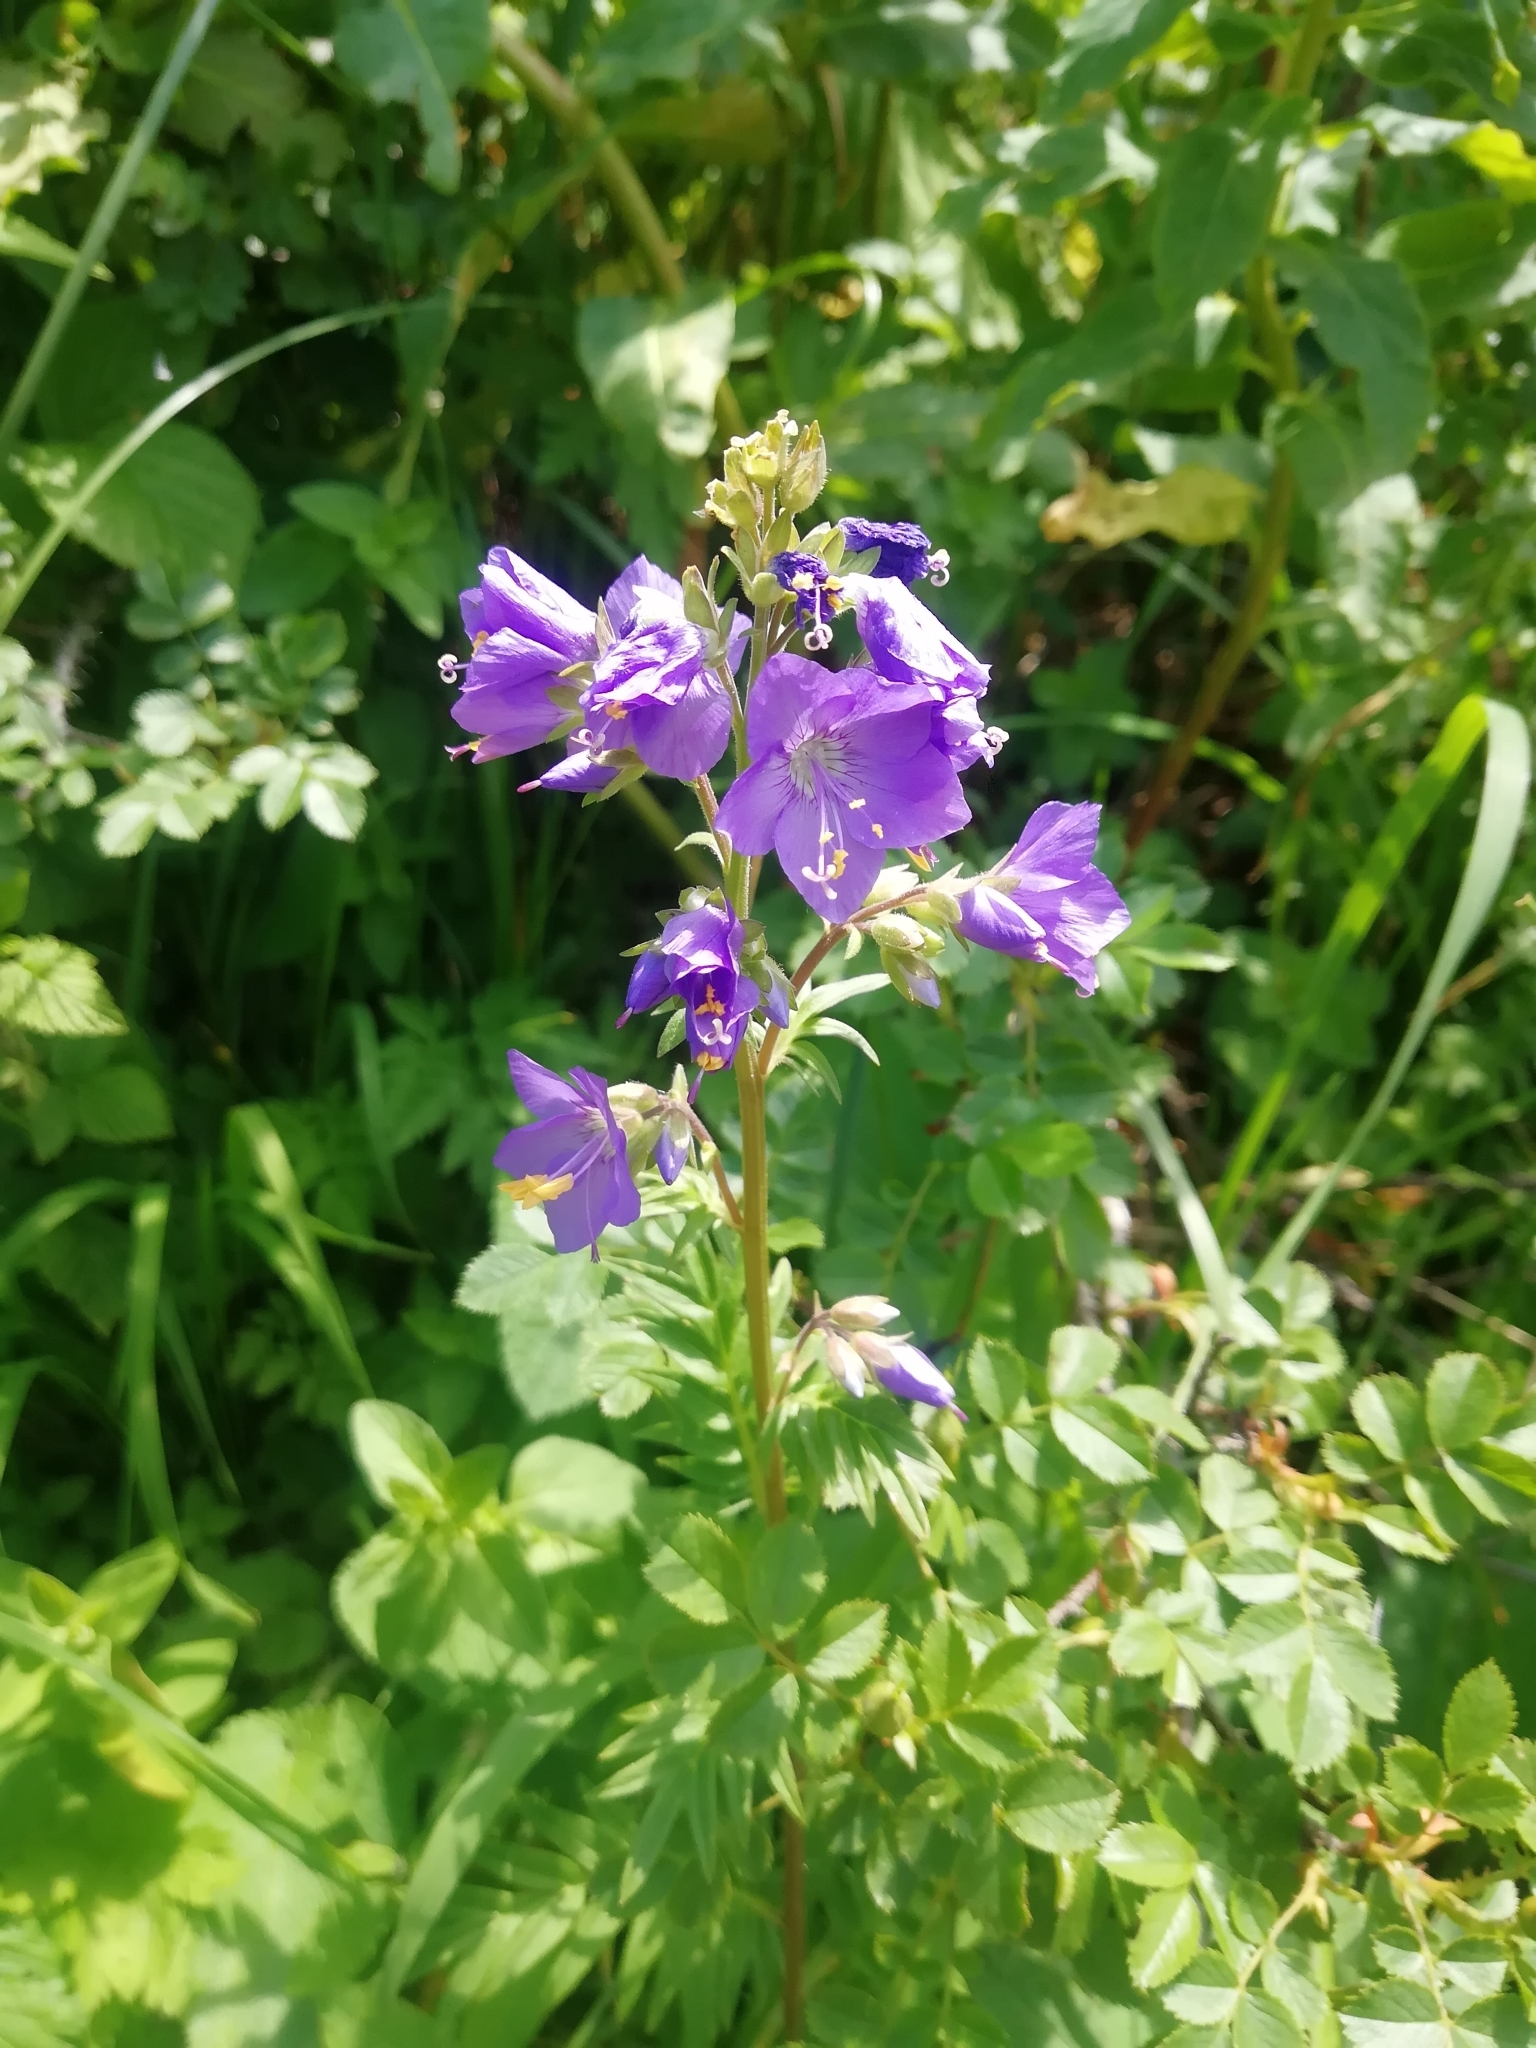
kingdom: Plantae
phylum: Tracheophyta
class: Magnoliopsida
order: Ericales
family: Polemoniaceae
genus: Polemonium
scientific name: Polemonium caeruleum
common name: Jacob's-ladder
